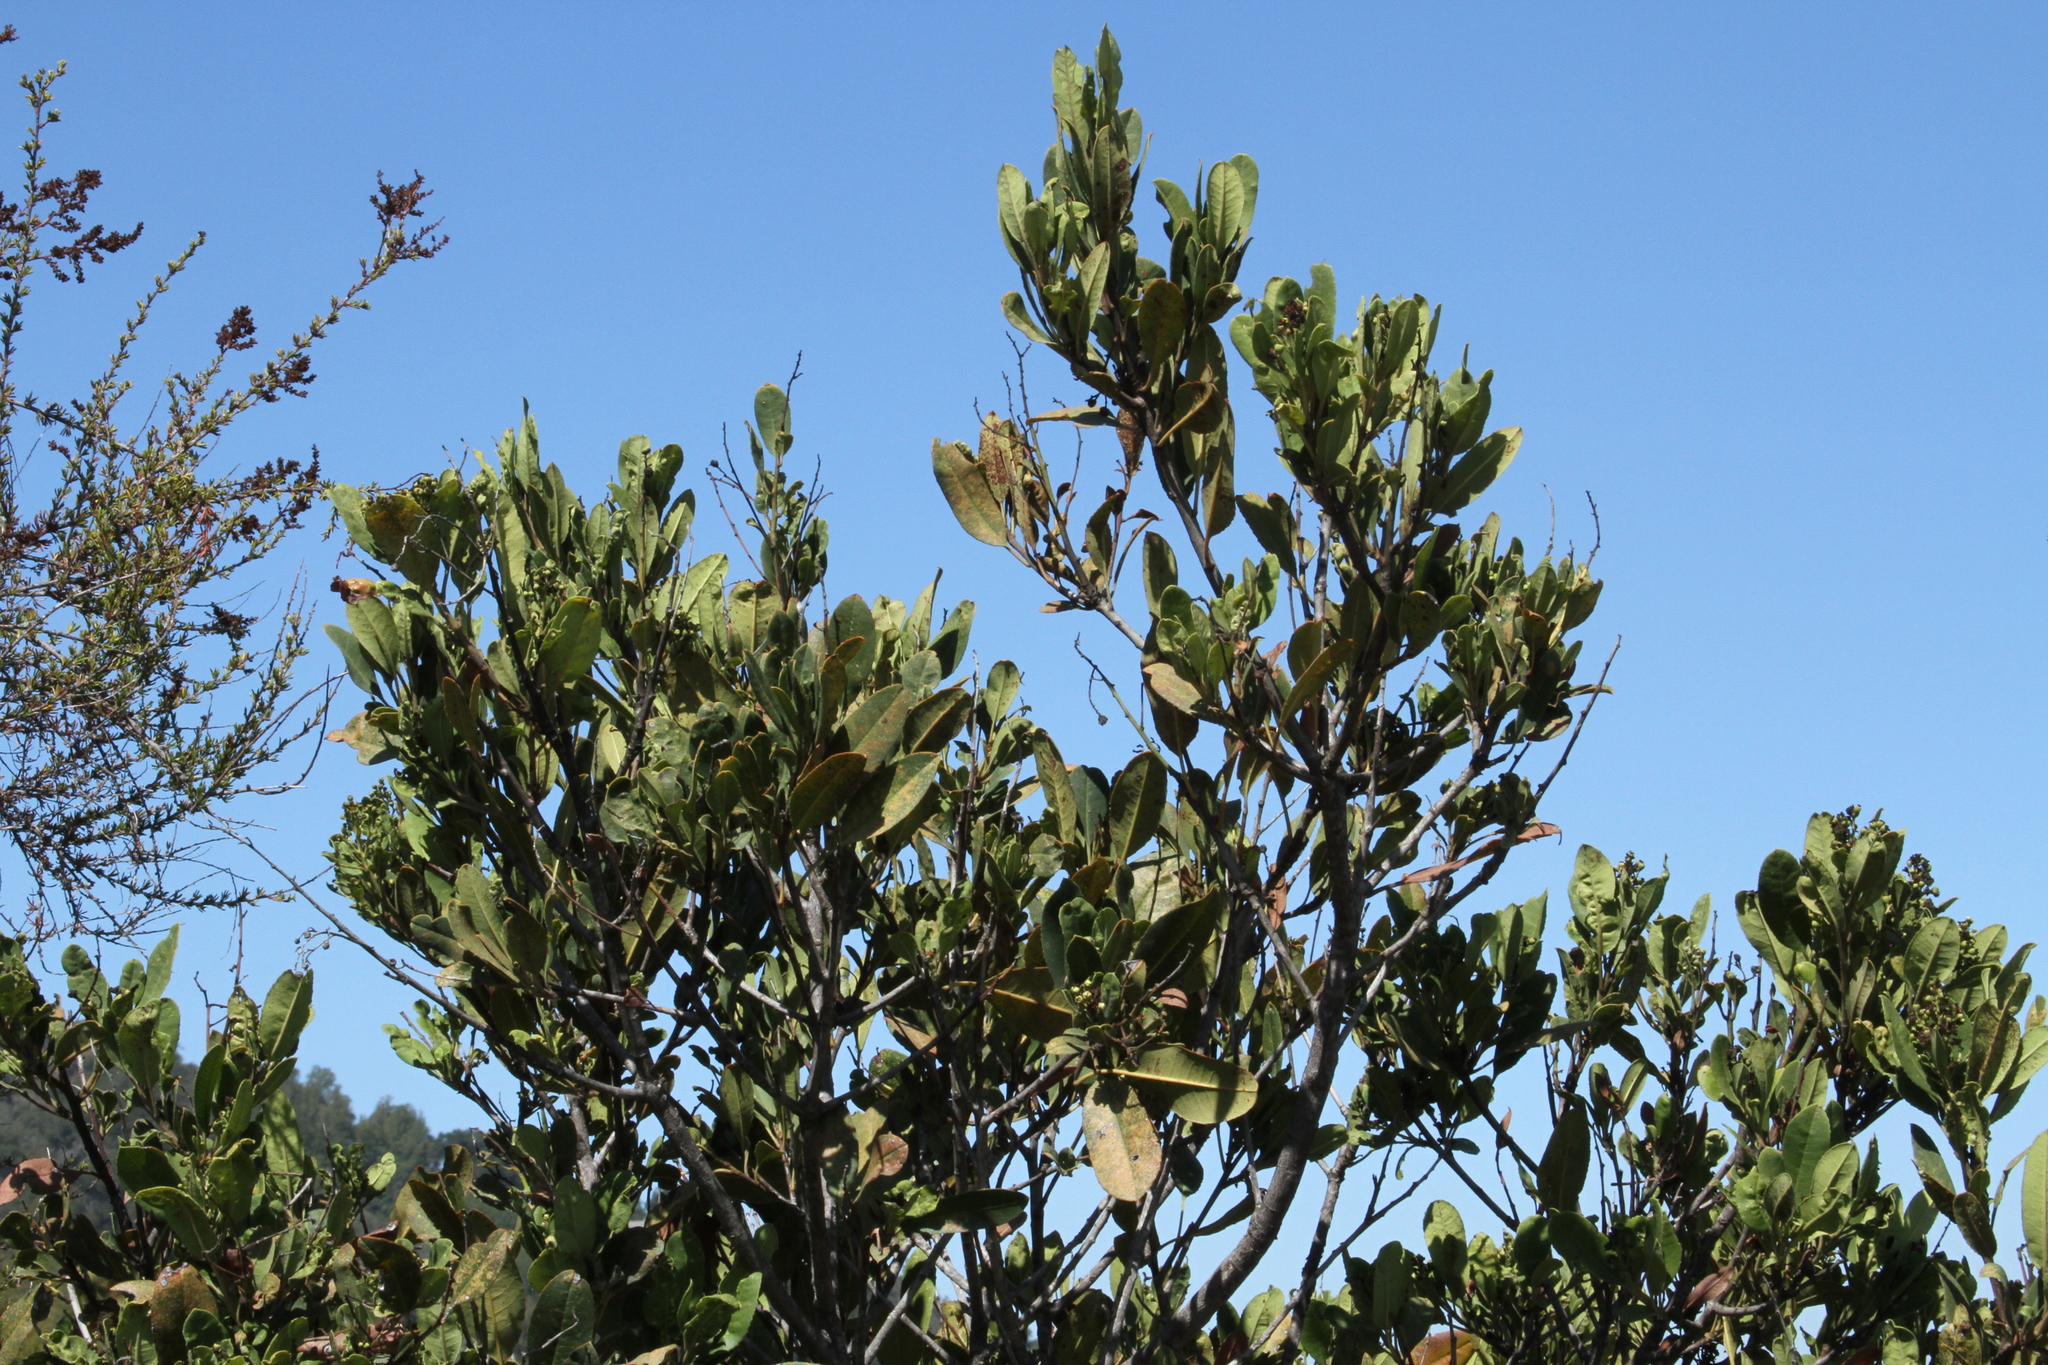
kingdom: Plantae
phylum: Tracheophyta
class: Magnoliopsida
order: Rosales
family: Rosaceae
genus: Heteromeles
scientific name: Heteromeles arbutifolia
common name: California-holly
